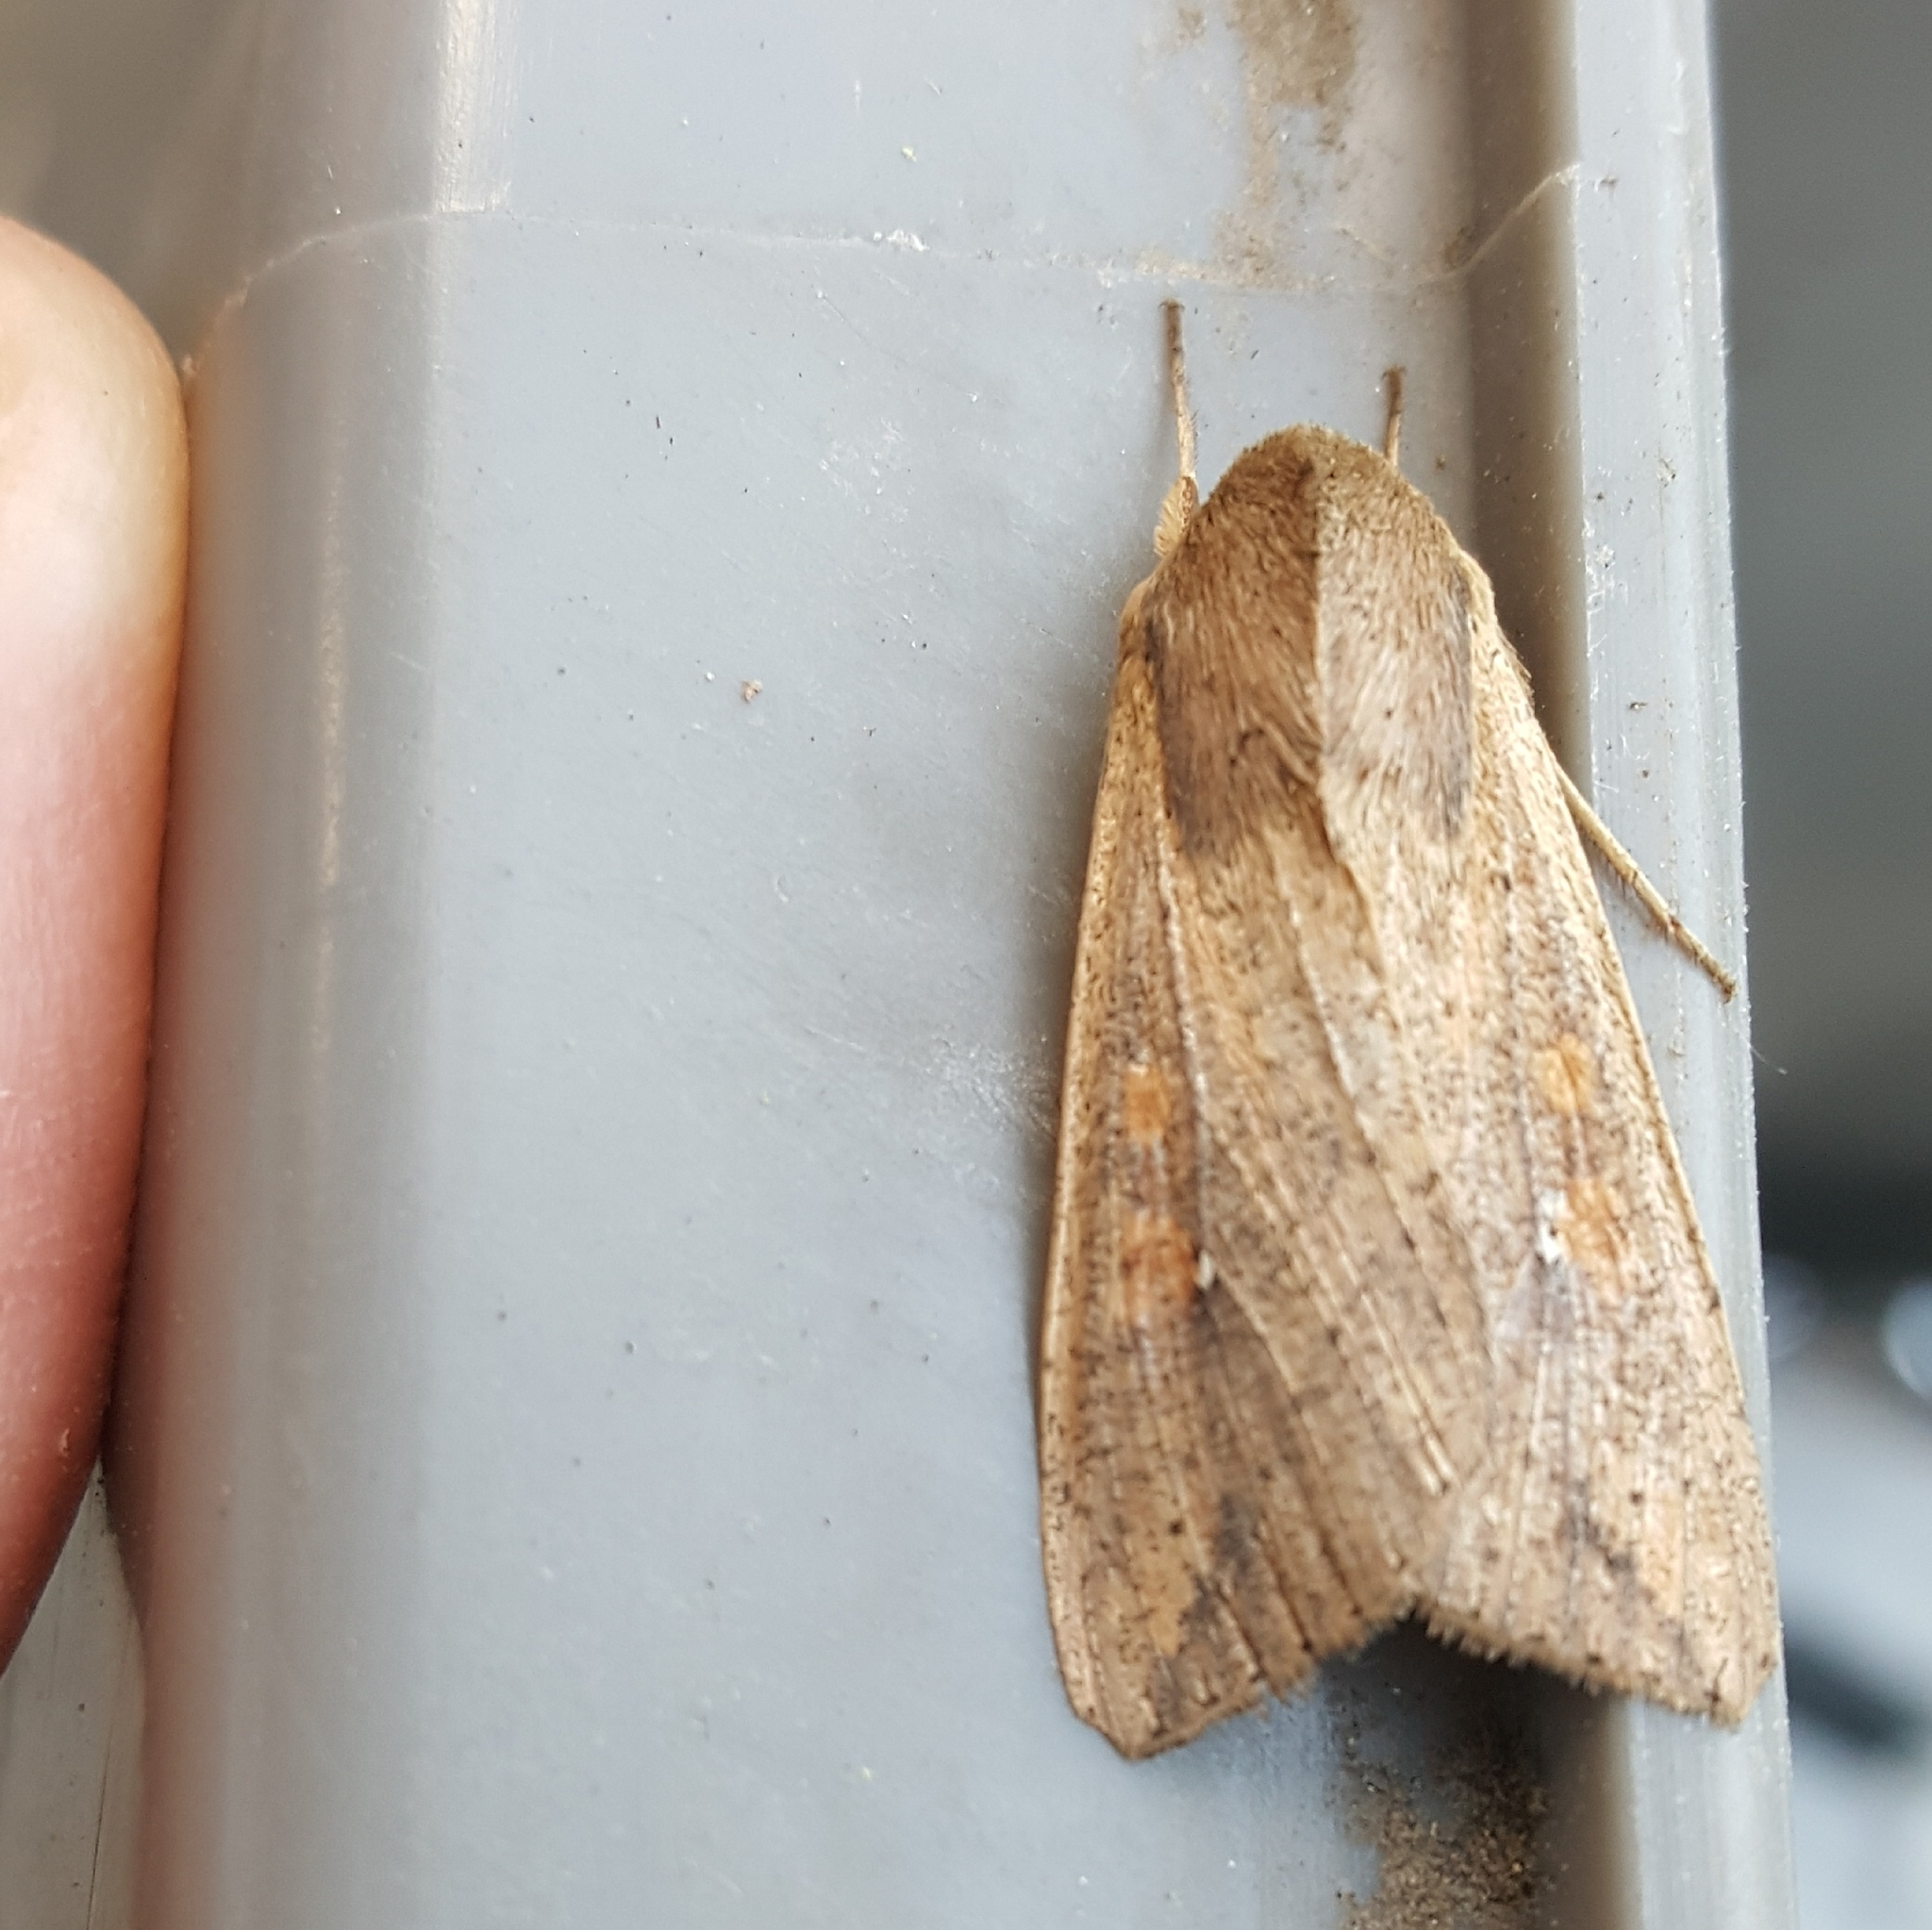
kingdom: Animalia
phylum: Arthropoda
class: Insecta
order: Lepidoptera
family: Noctuidae
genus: Mythimna
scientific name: Mythimna unipuncta
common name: White-speck
